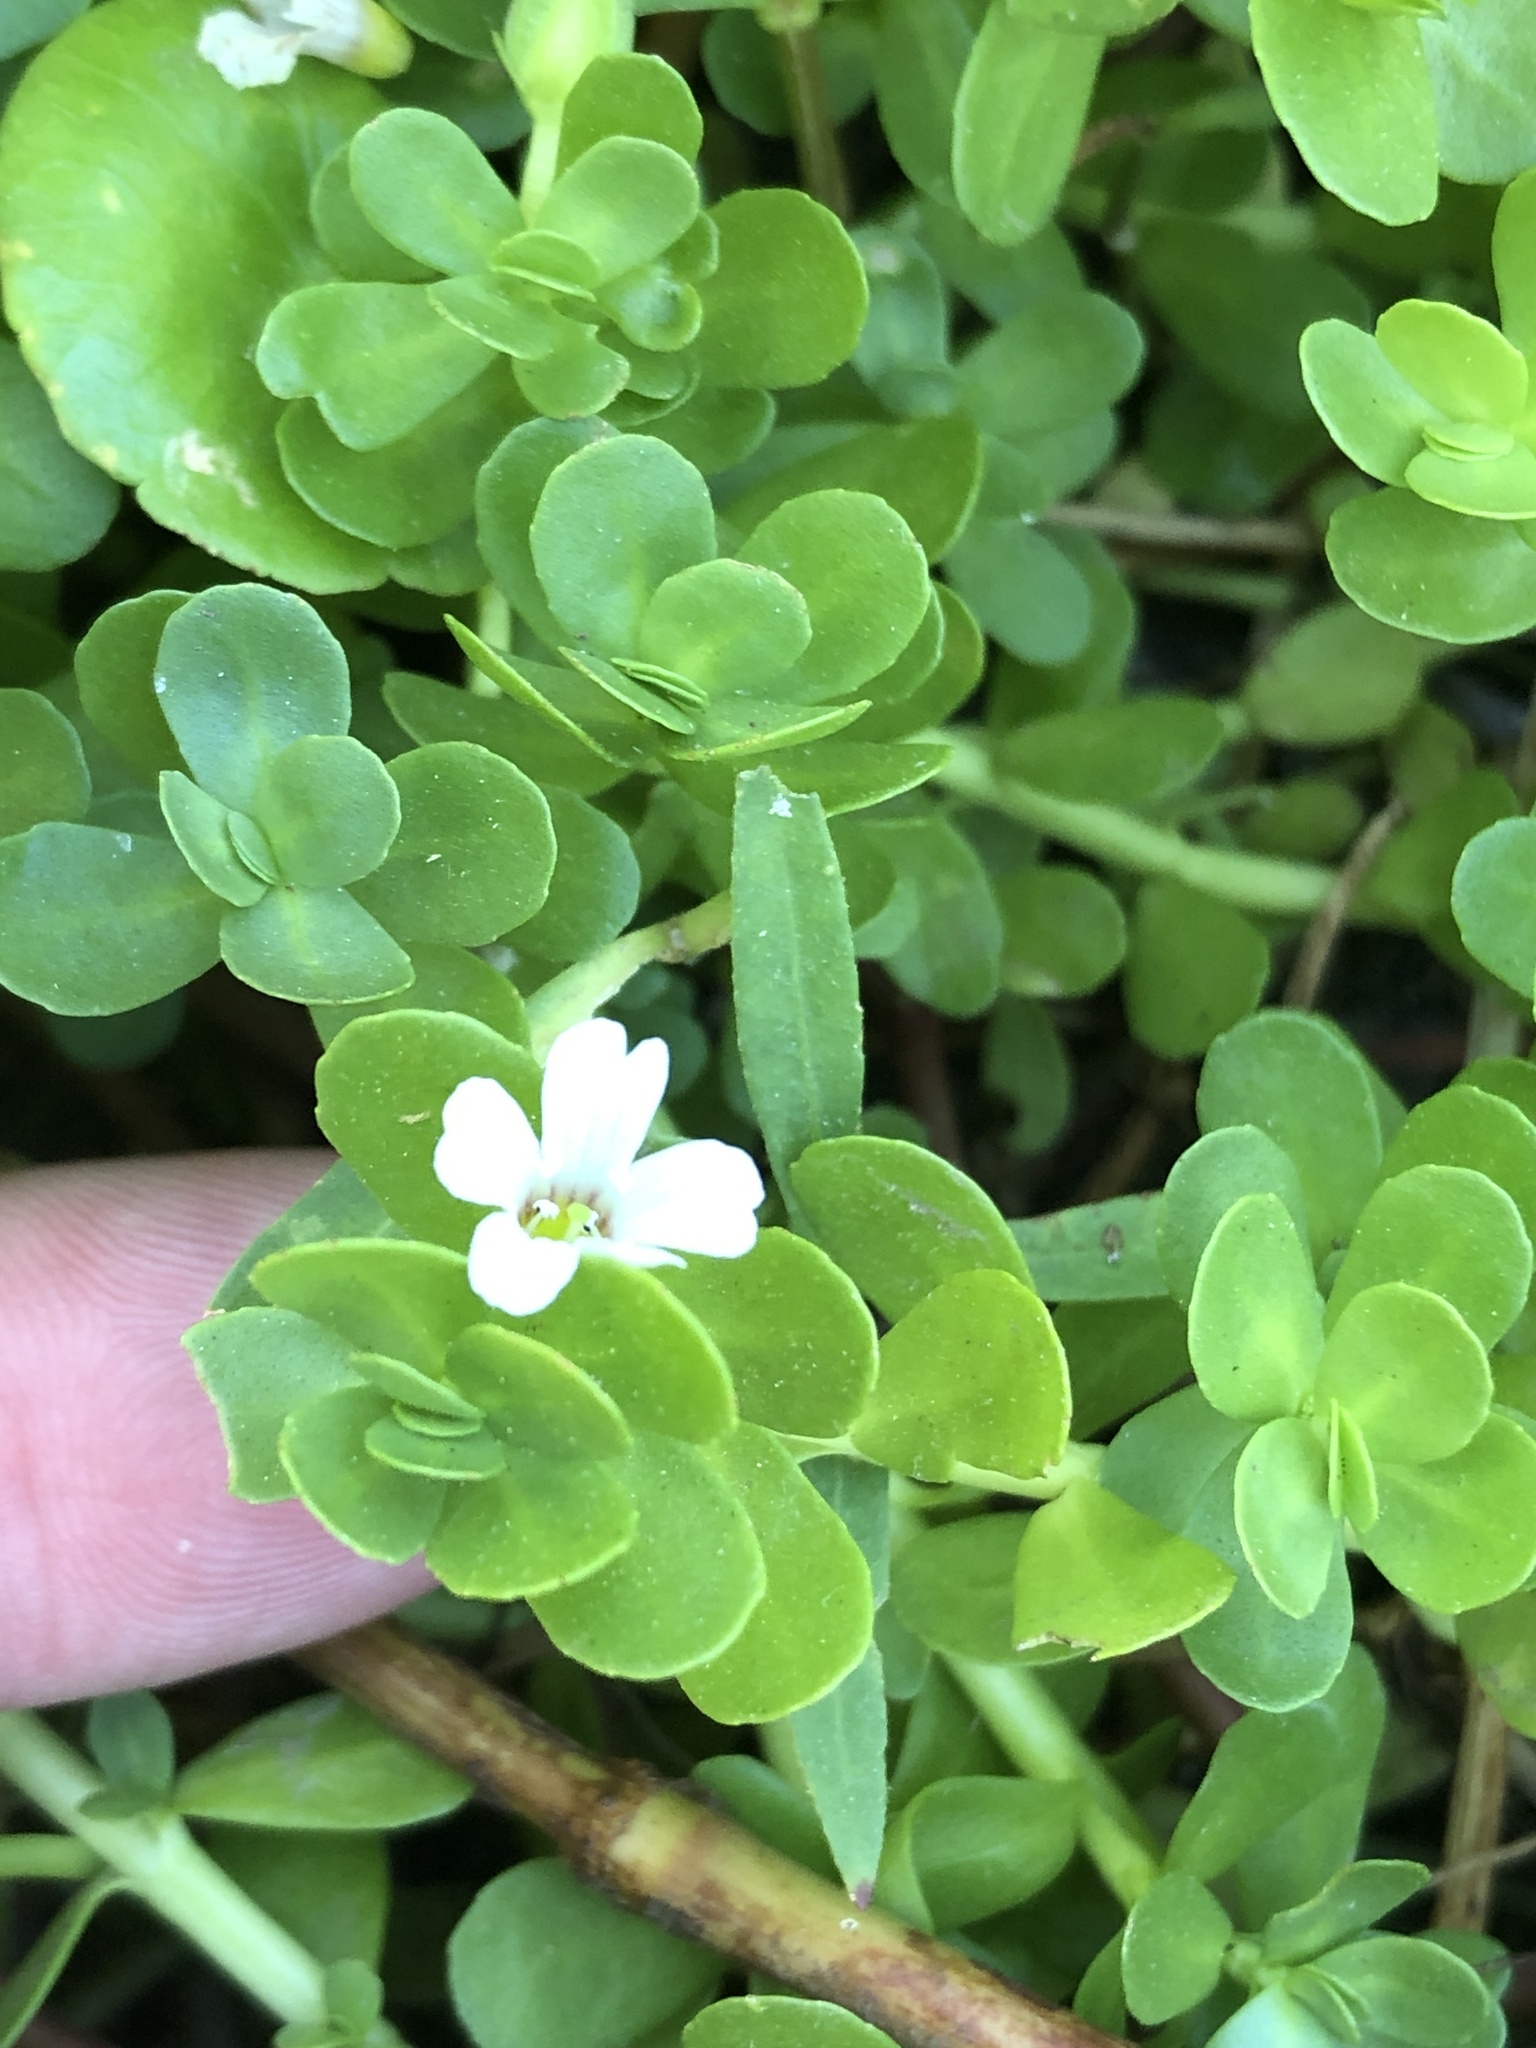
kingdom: Plantae
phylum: Tracheophyta
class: Magnoliopsida
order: Lamiales
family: Plantaginaceae
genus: Bacopa
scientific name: Bacopa monnieri
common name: Indian-pennywort
